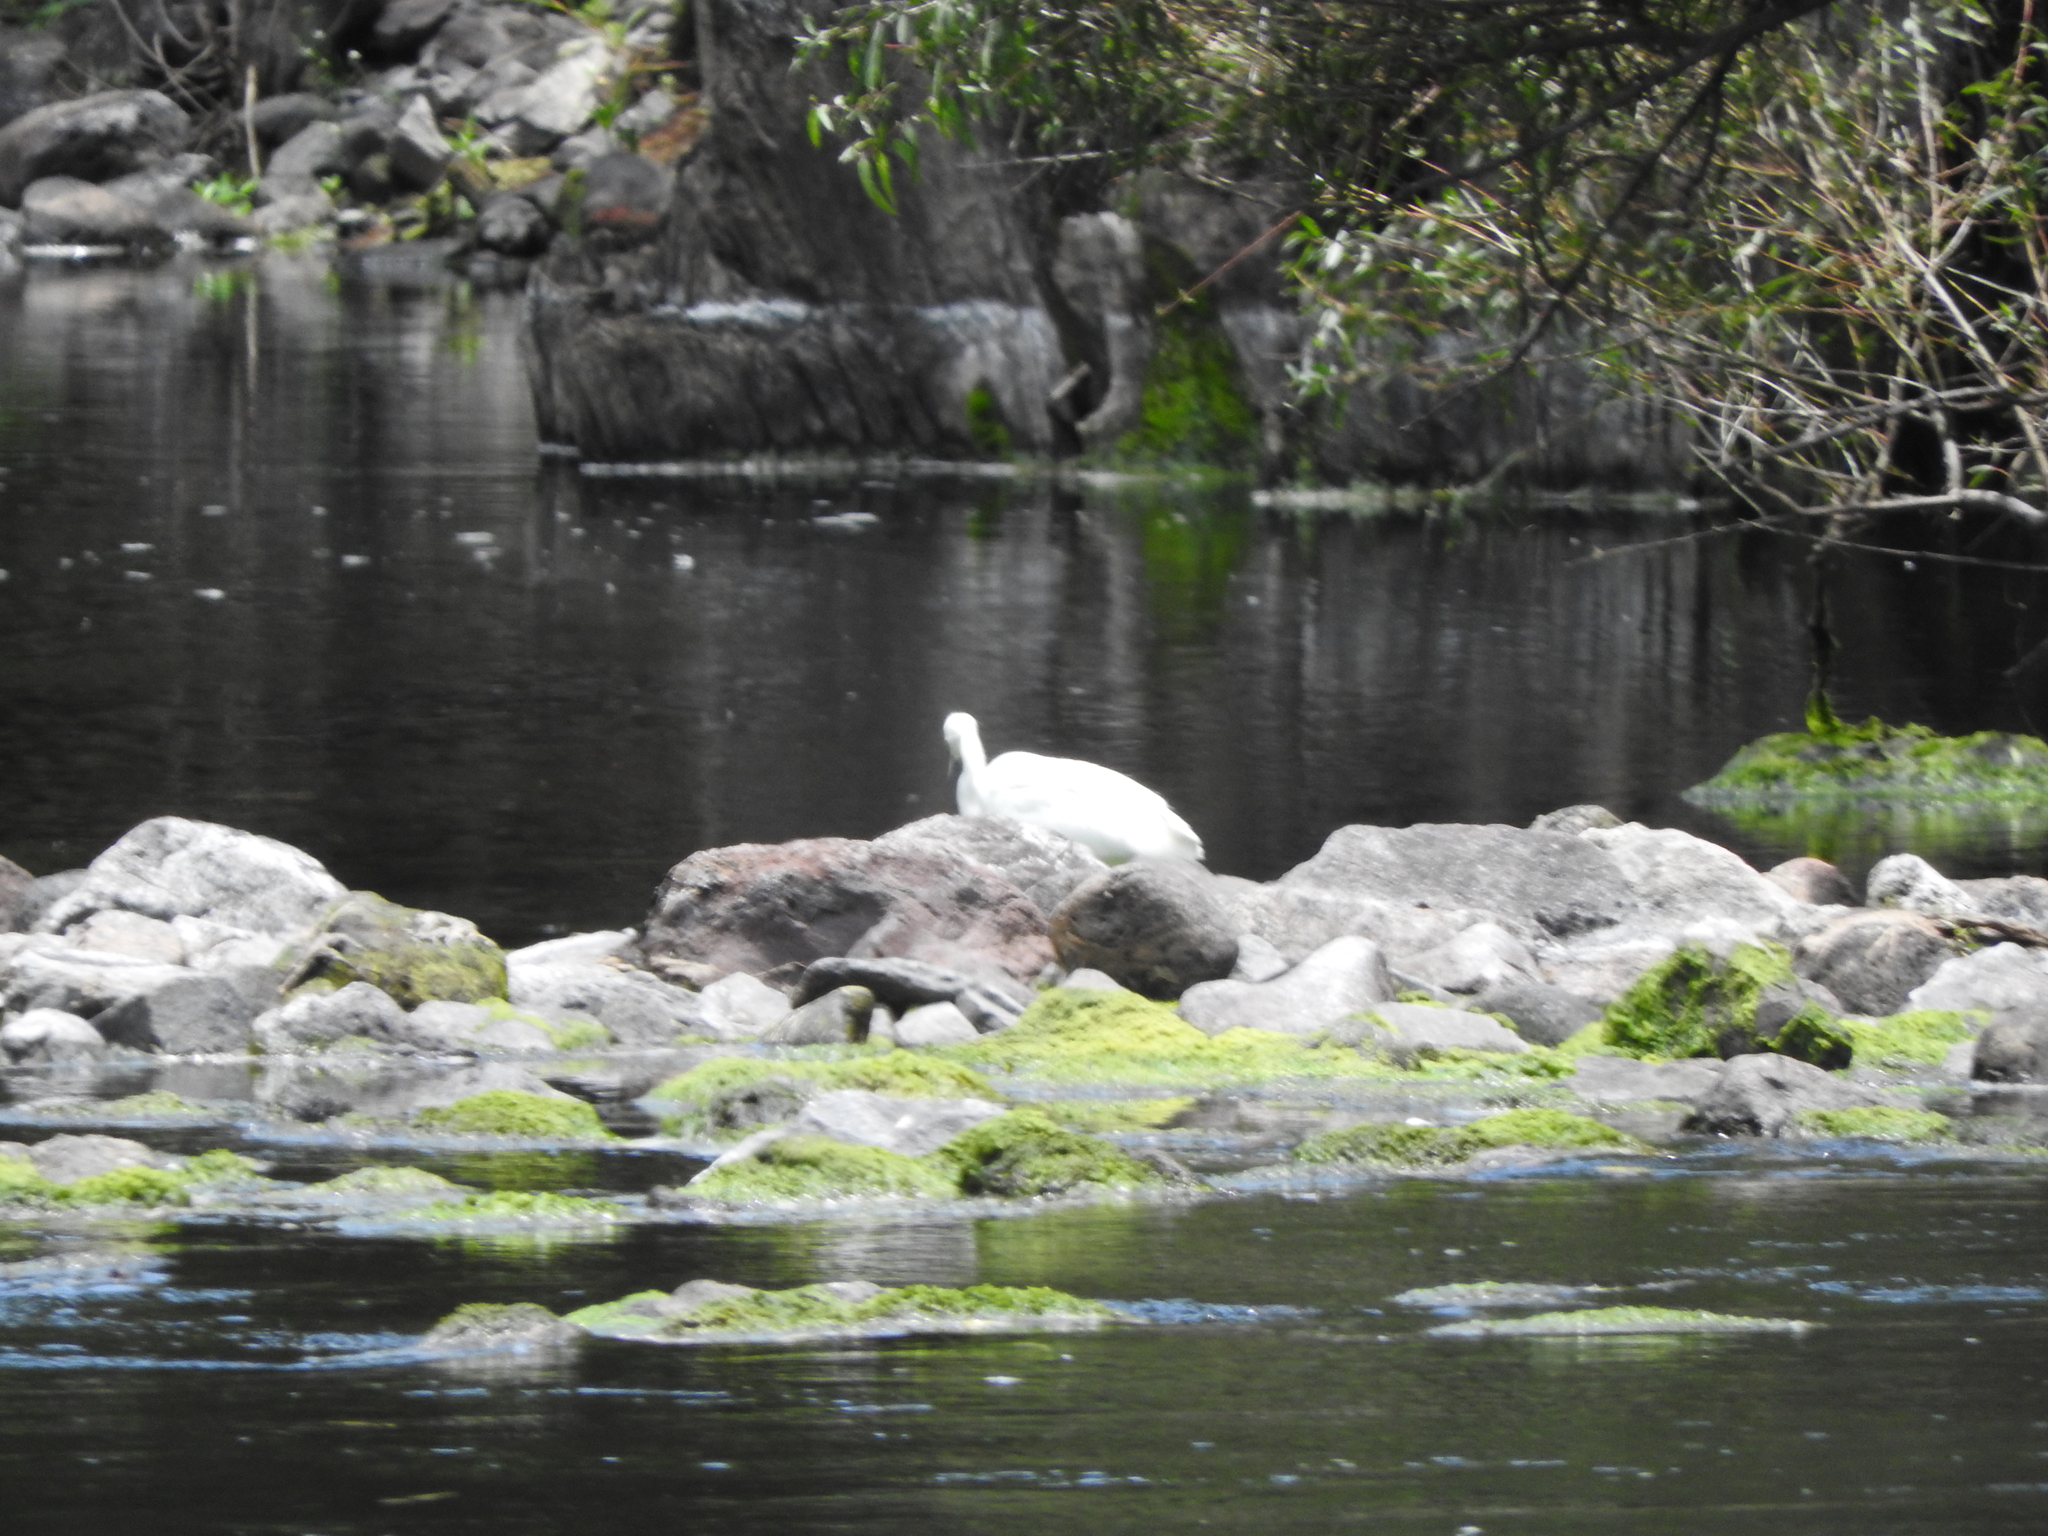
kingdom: Animalia
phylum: Chordata
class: Aves
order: Pelecaniformes
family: Ardeidae
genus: Egretta
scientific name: Egretta
